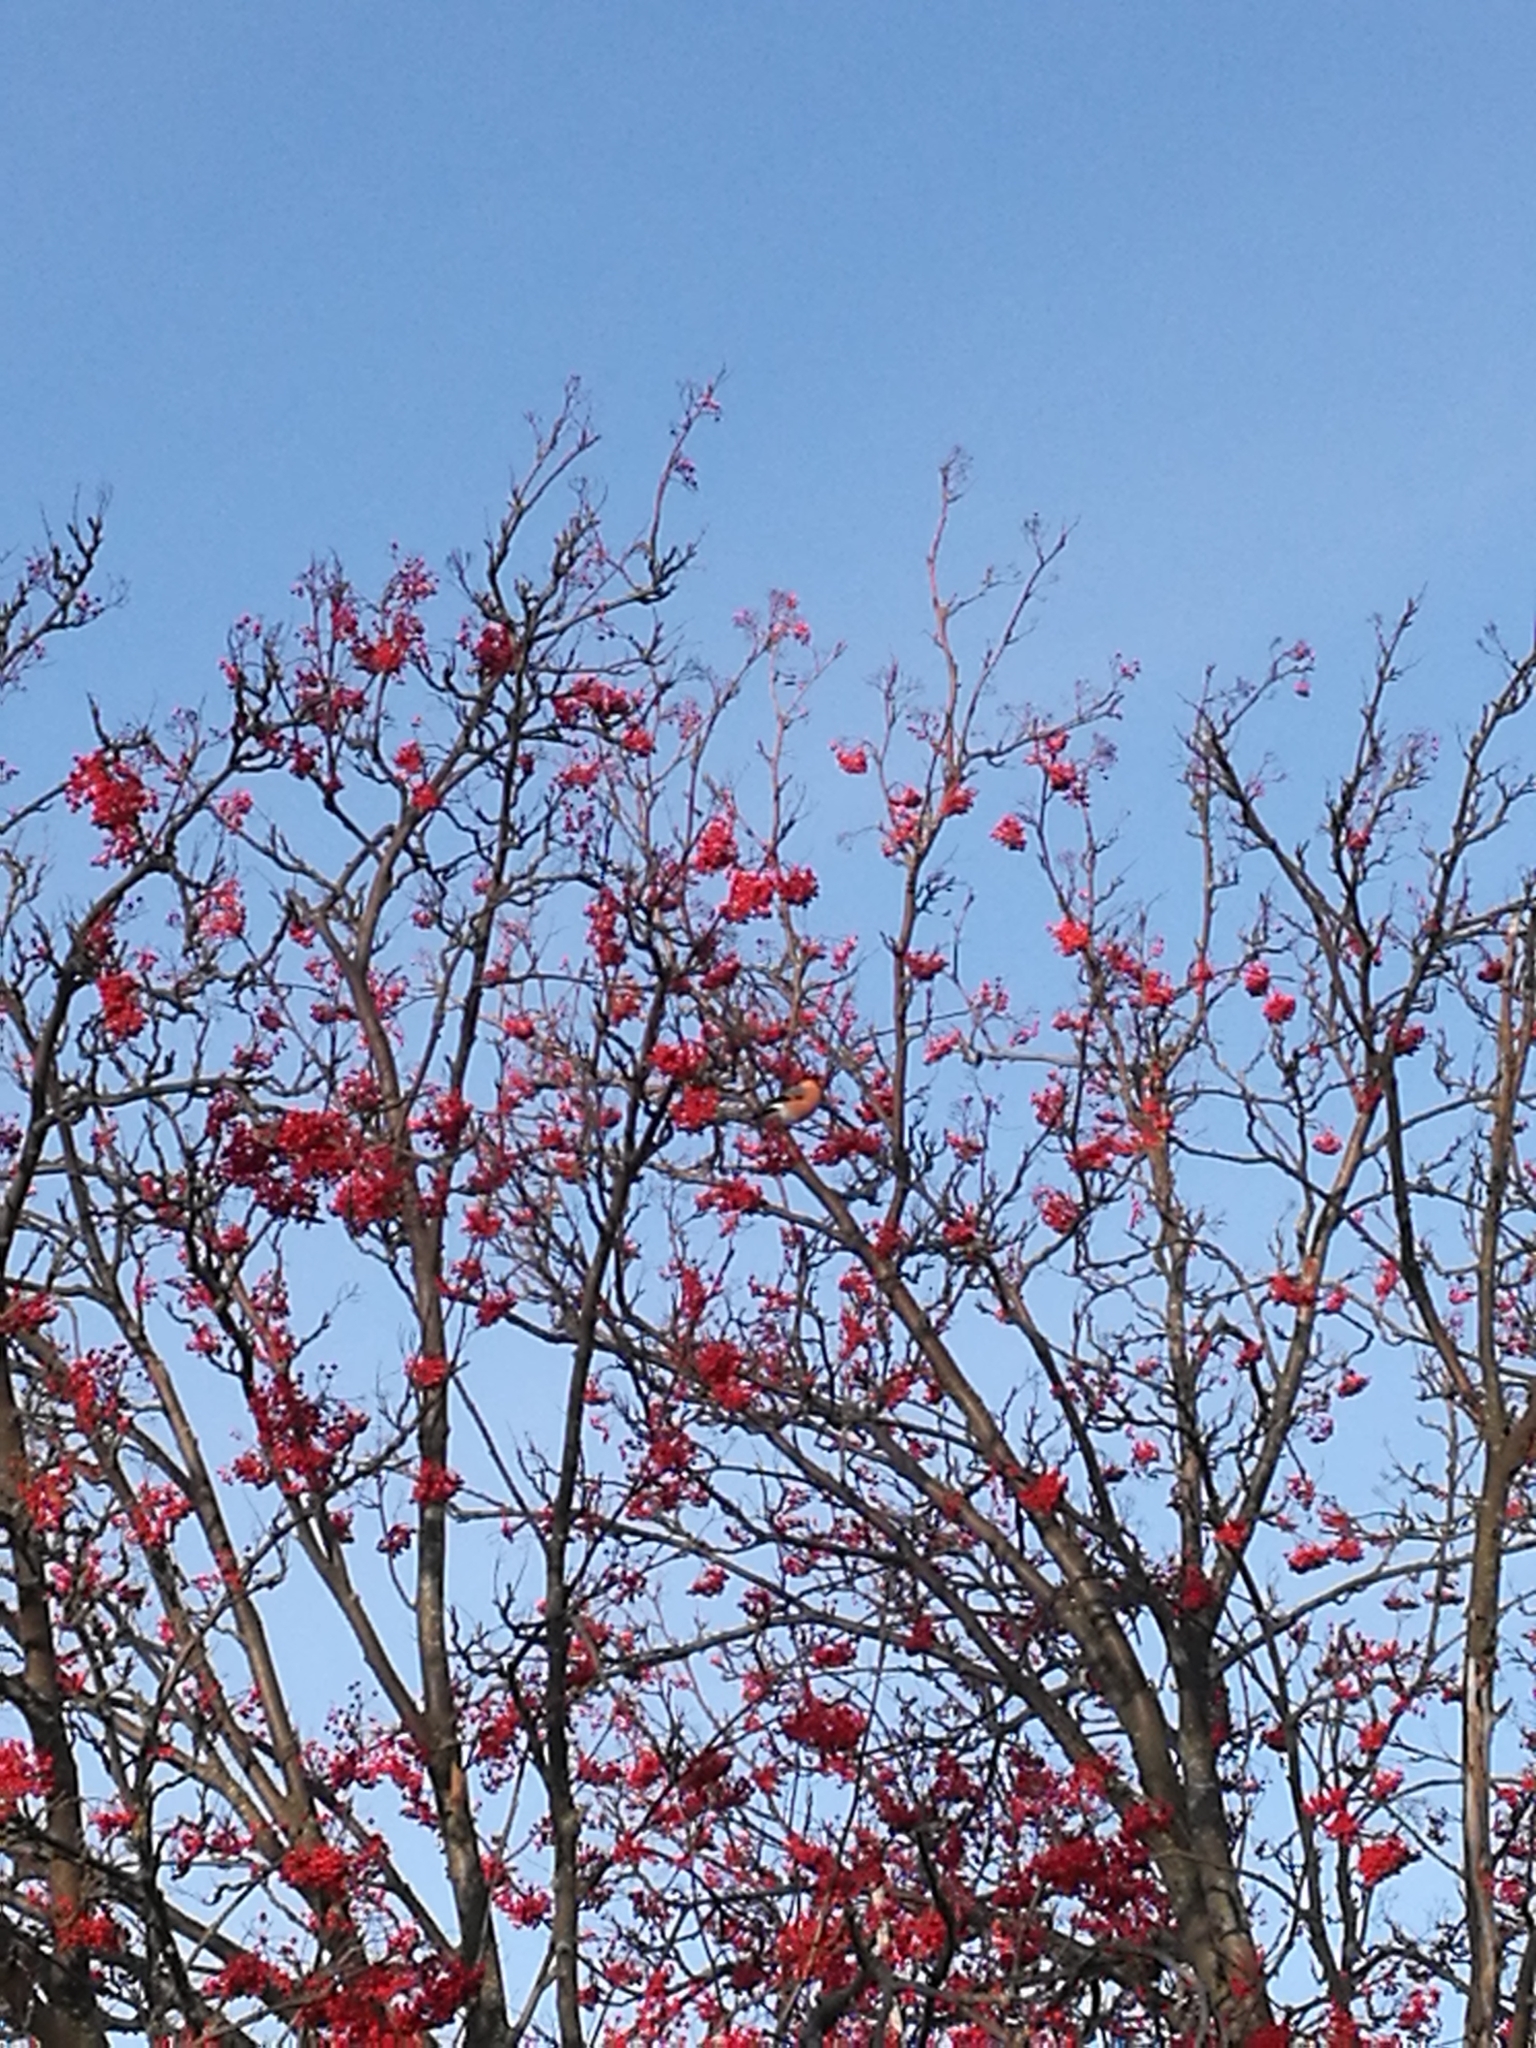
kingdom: Animalia
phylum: Chordata
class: Aves
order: Passeriformes
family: Fringillidae
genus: Pyrrhula
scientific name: Pyrrhula pyrrhula
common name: Eurasian bullfinch
